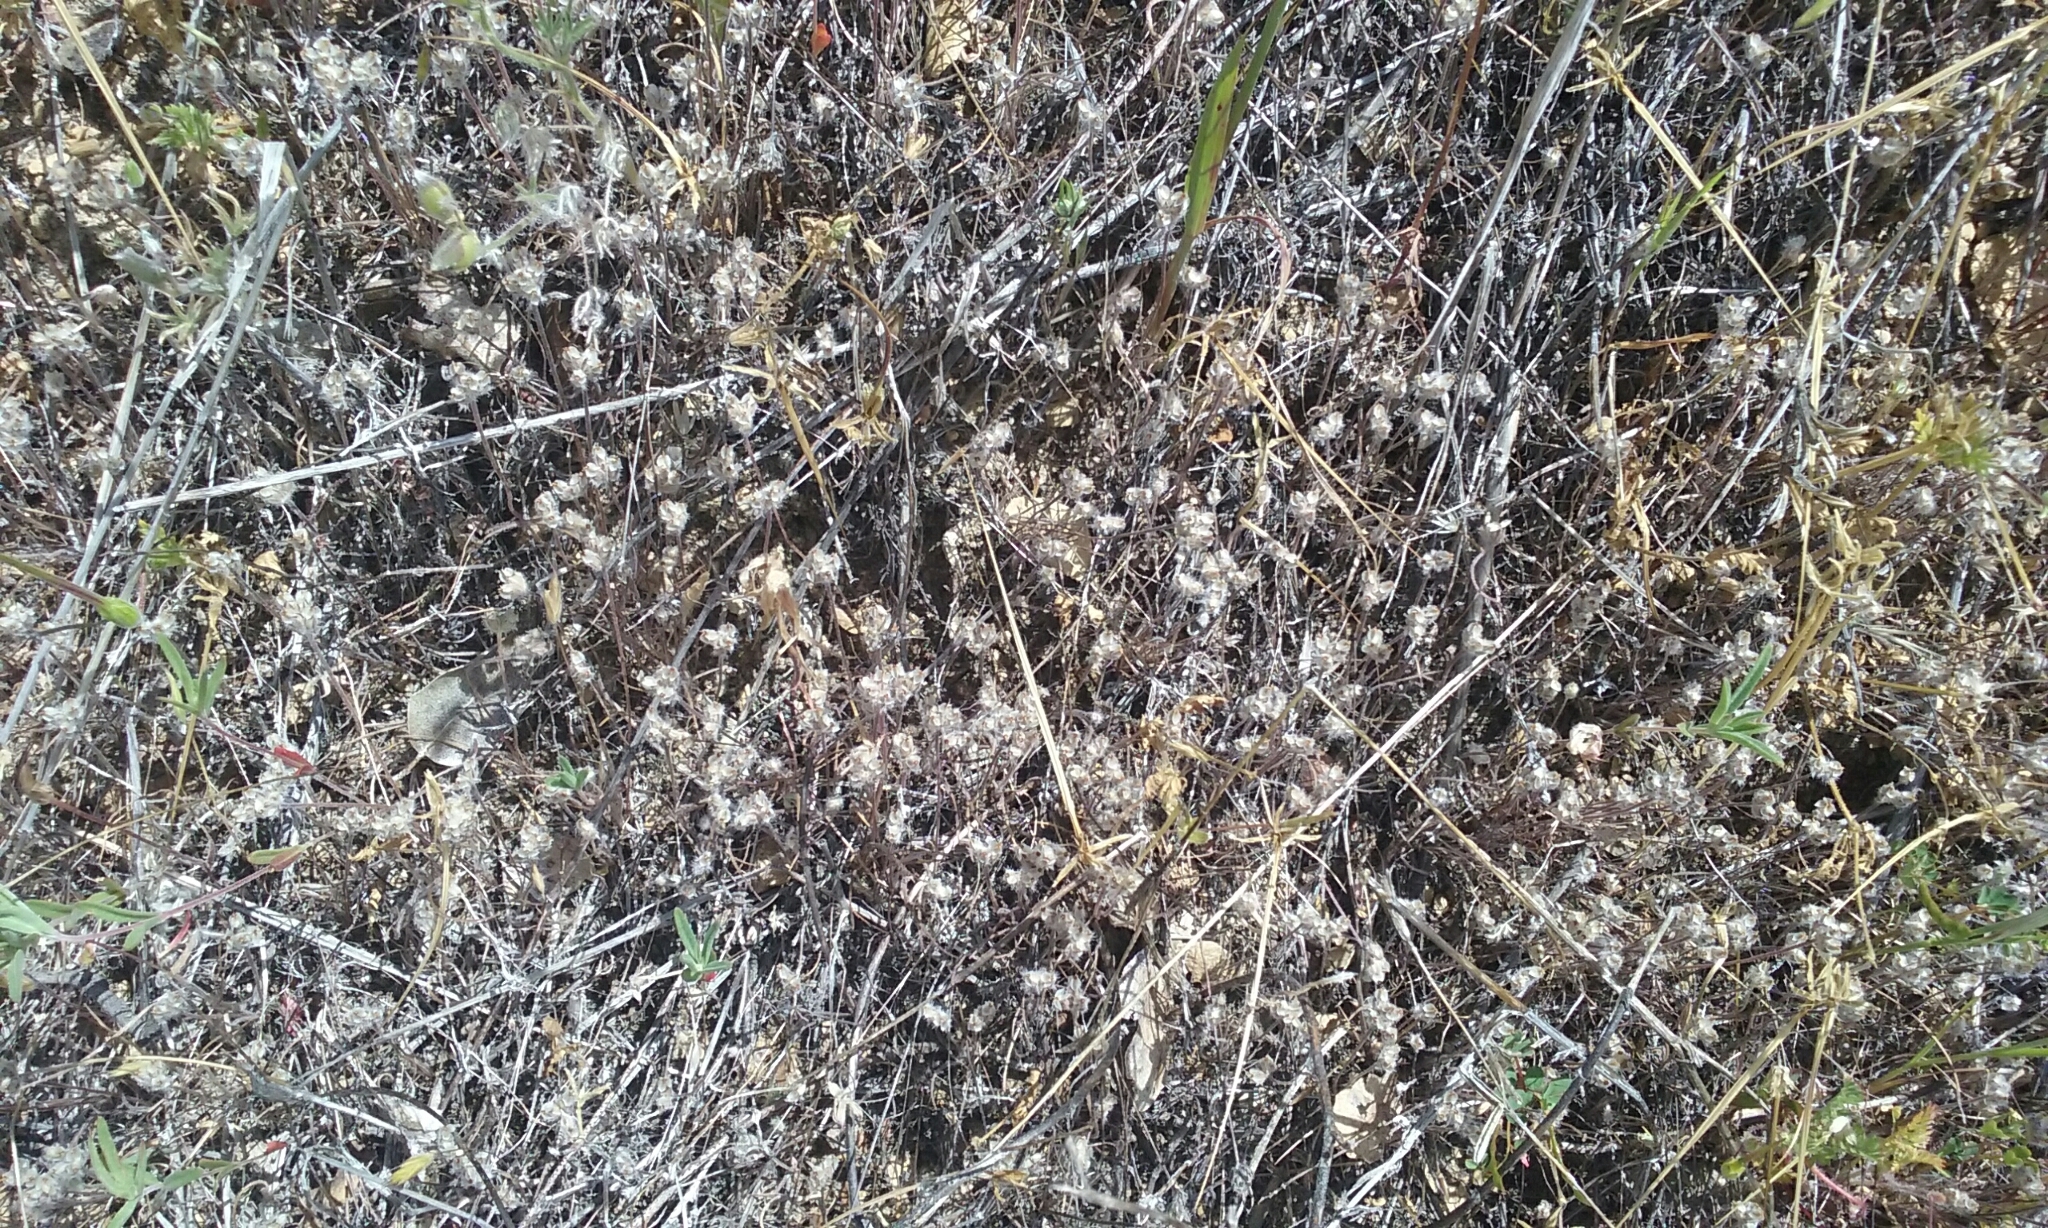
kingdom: Plantae
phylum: Tracheophyta
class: Magnoliopsida
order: Lamiales
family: Plantaginaceae
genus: Plantago
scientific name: Plantago erecta
